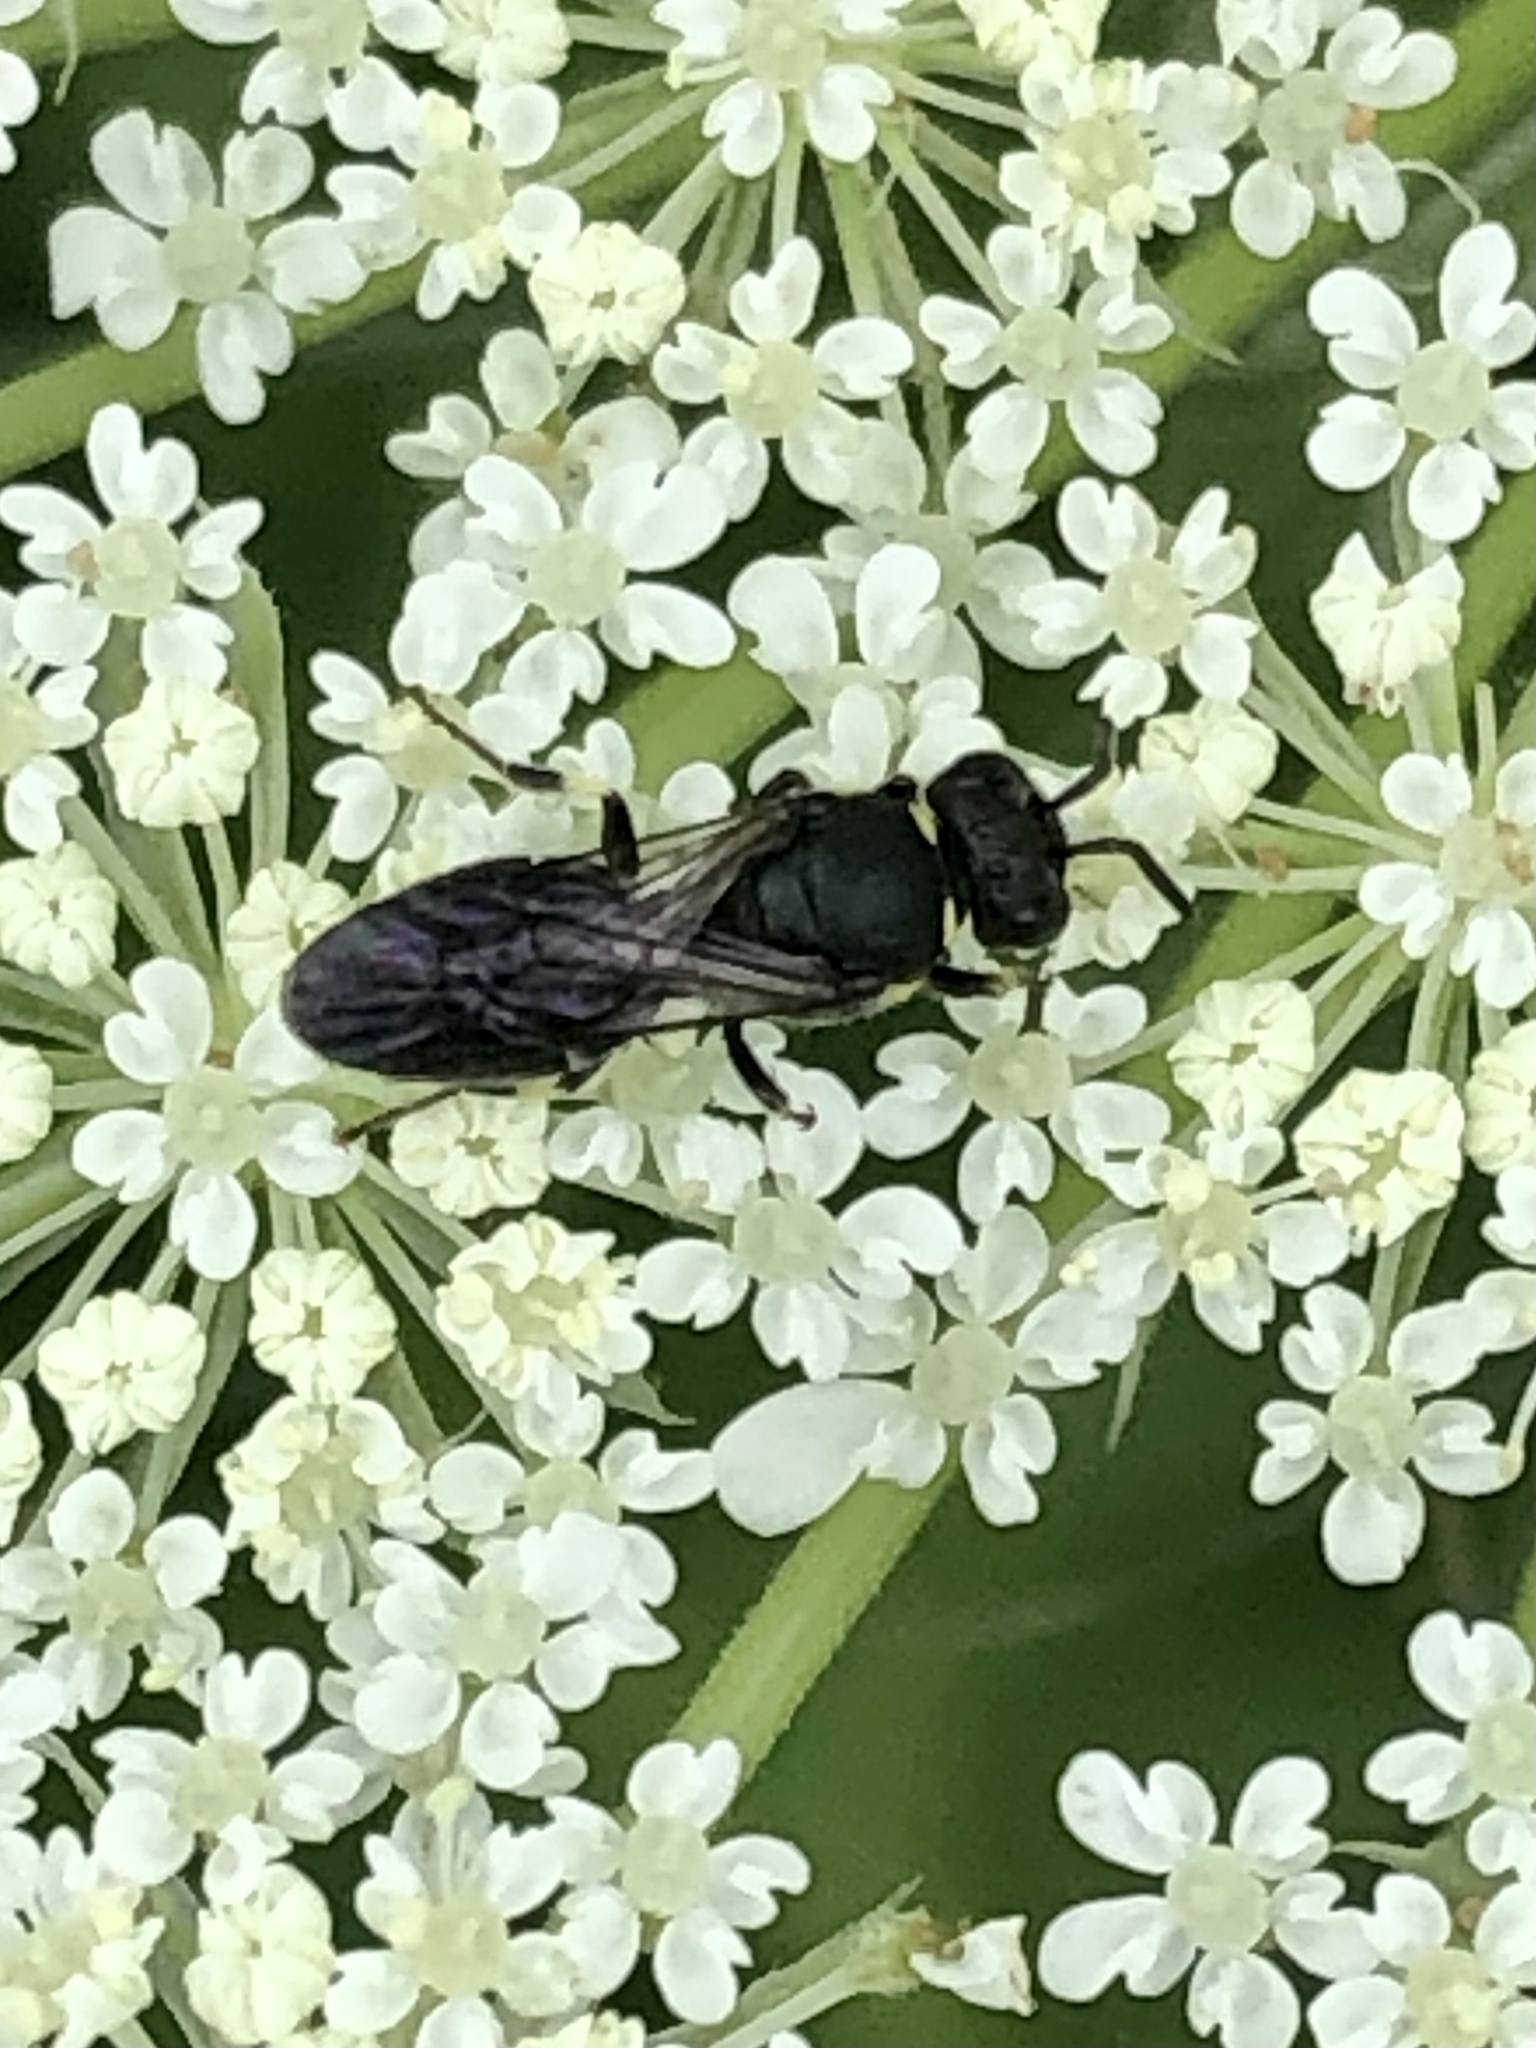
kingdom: Animalia
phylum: Arthropoda
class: Insecta
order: Hymenoptera
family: Colletidae
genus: Hylaeus
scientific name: Hylaeus modestus
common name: Yellow-faced bee
